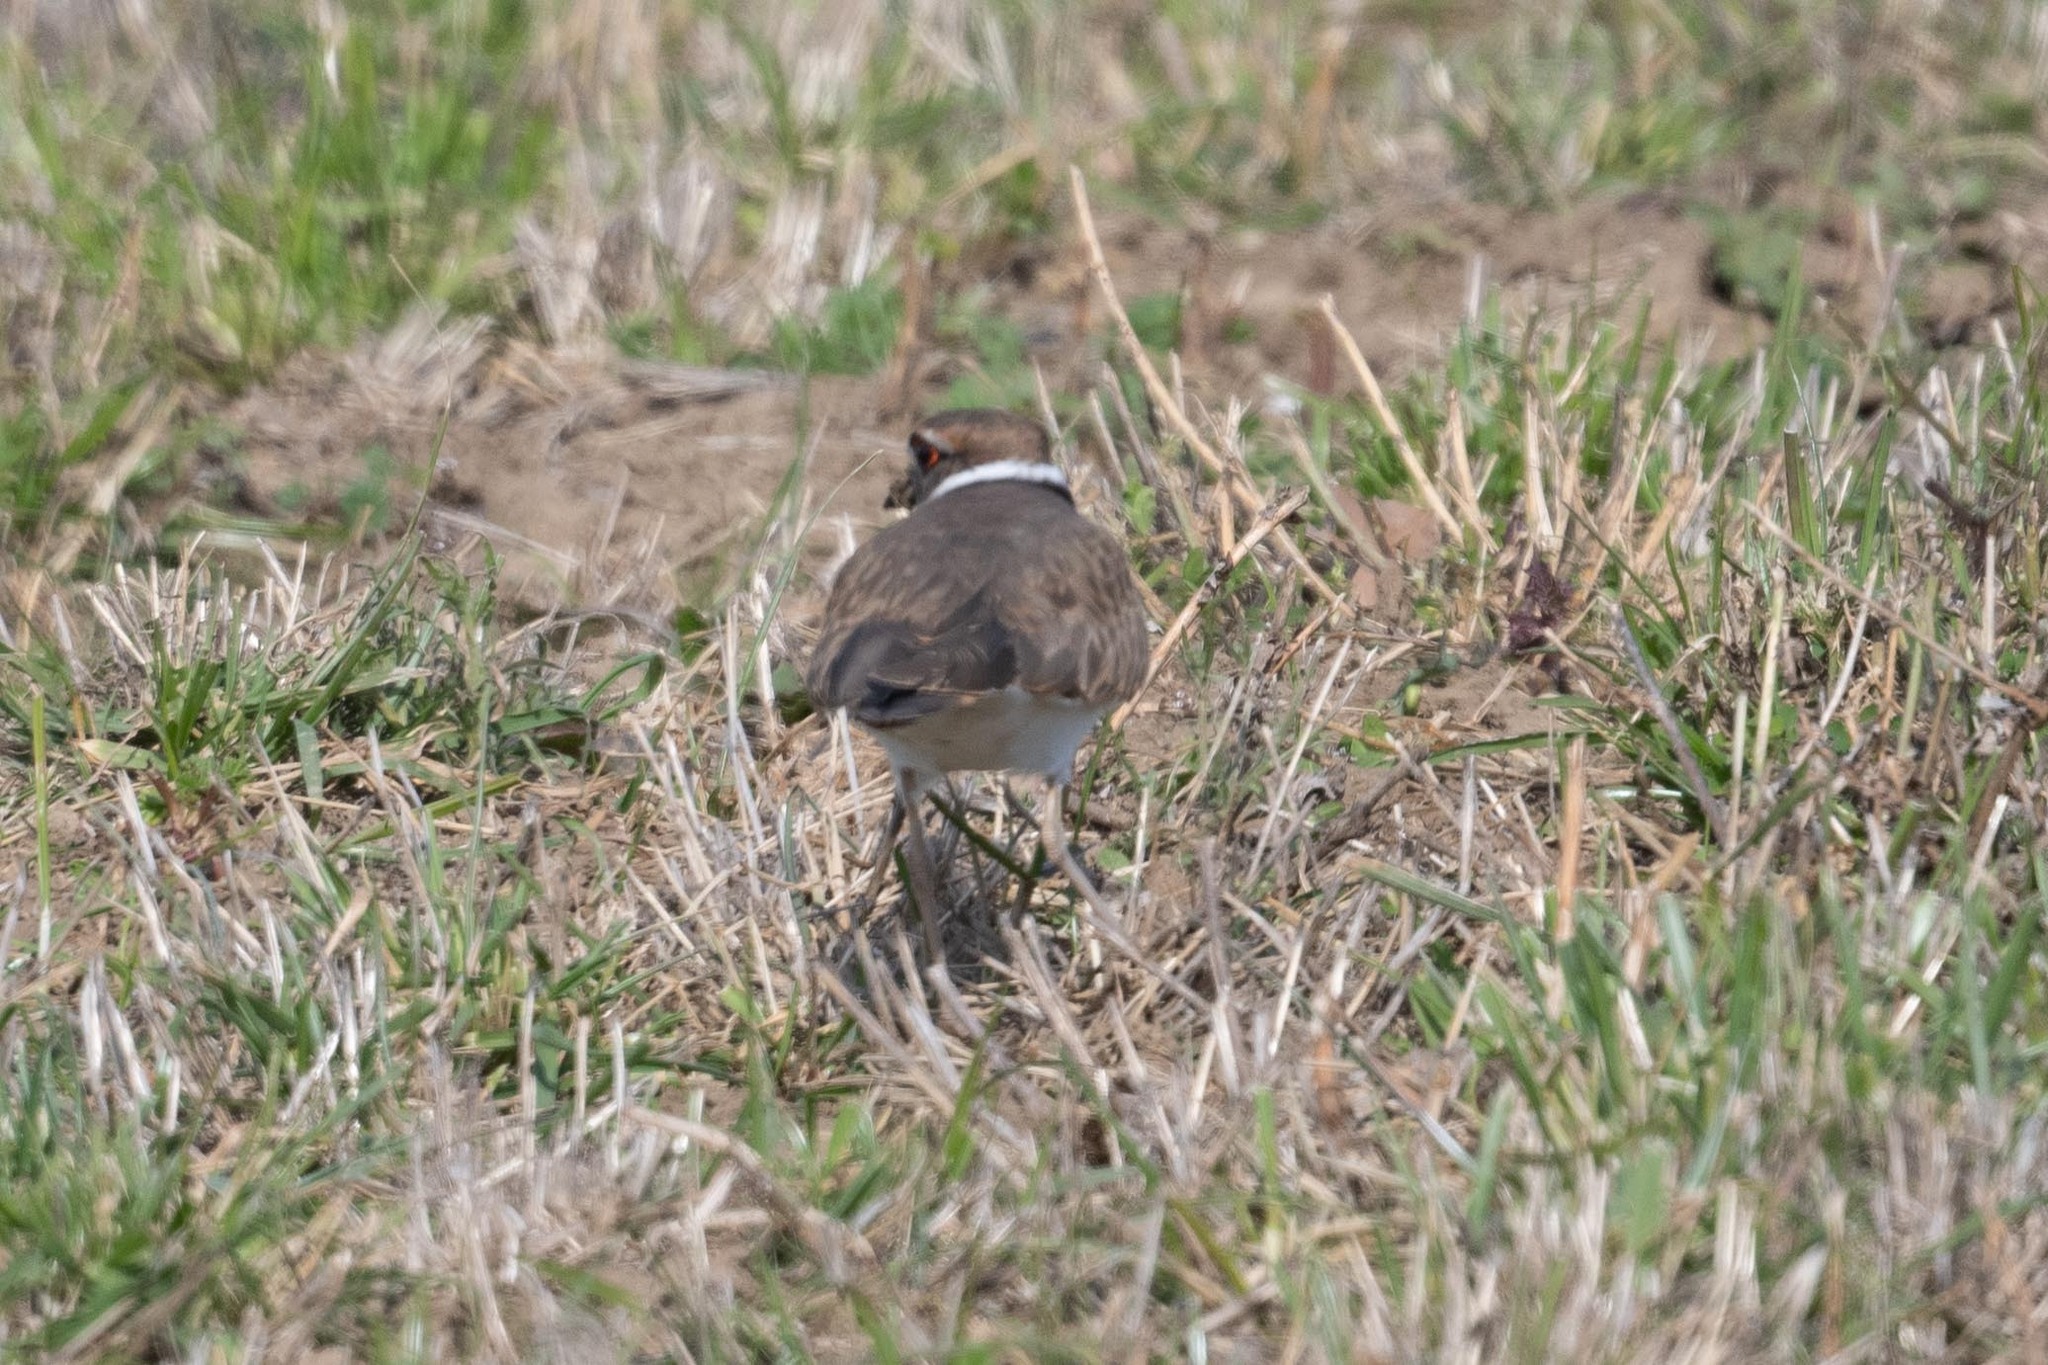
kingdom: Animalia
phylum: Chordata
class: Aves
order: Charadriiformes
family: Charadriidae
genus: Charadrius
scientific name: Charadrius vociferus
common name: Killdeer
